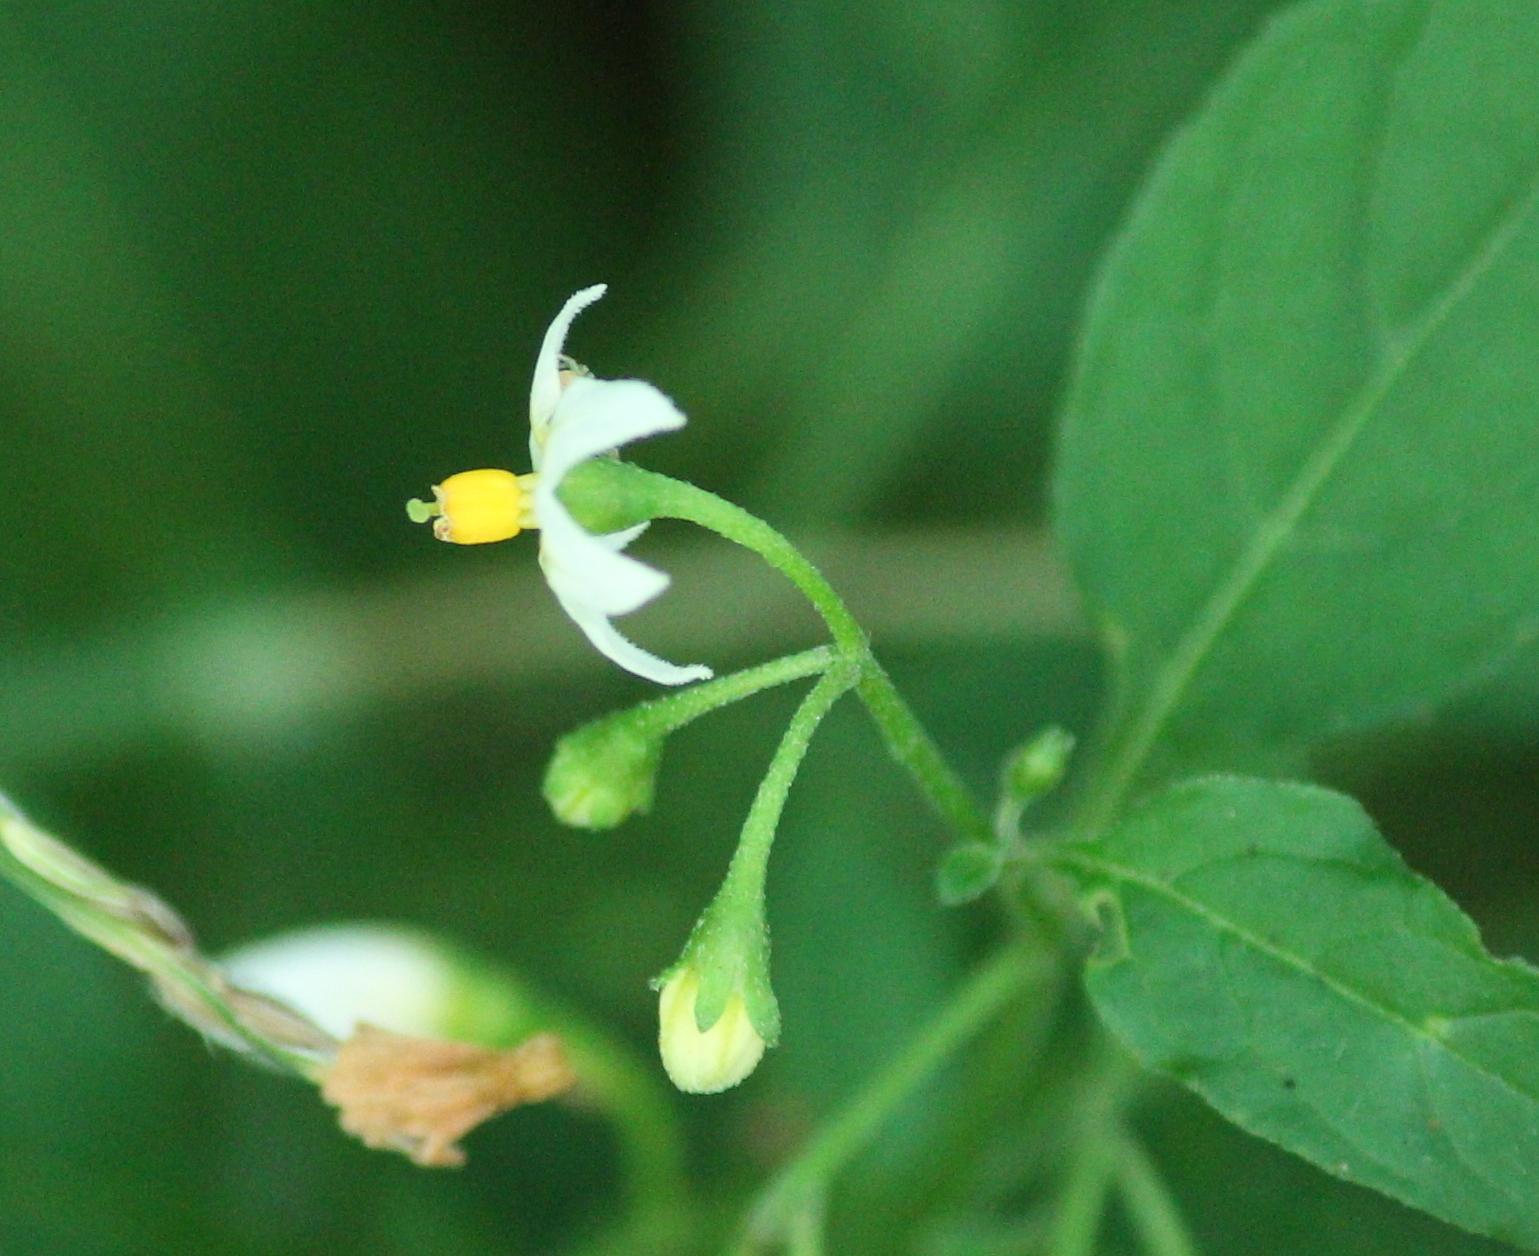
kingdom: Plantae
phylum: Tracheophyta
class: Magnoliopsida
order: Solanales
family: Solanaceae
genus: Solanum
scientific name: Solanum emulans
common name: Eastern black nightshade
